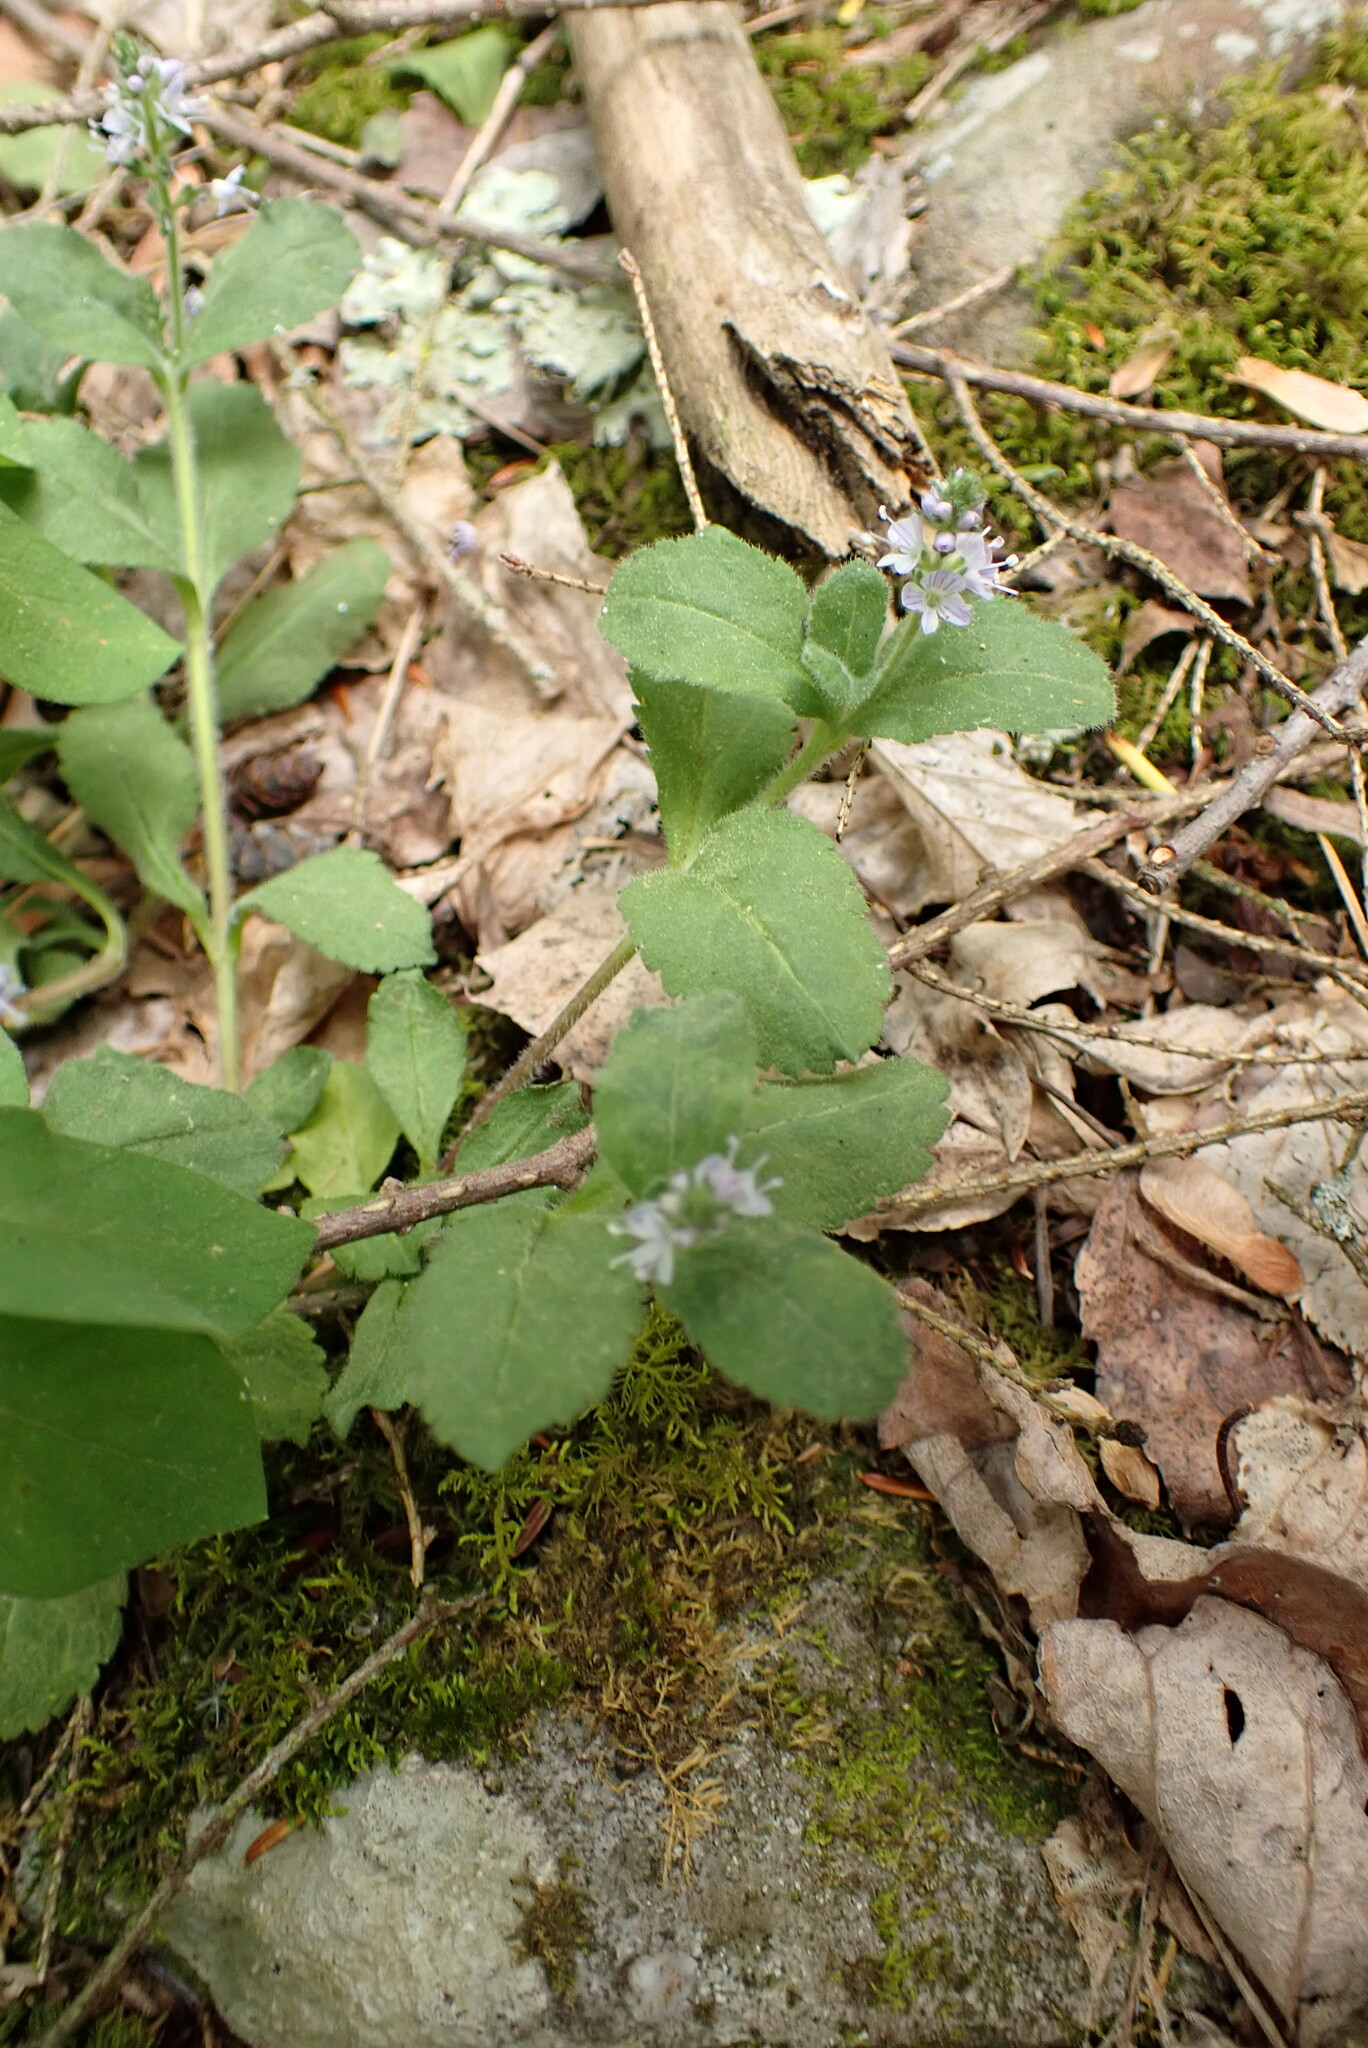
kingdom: Plantae
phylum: Tracheophyta
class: Magnoliopsida
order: Lamiales
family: Plantaginaceae
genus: Veronica
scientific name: Veronica officinalis
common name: Common speedwell
